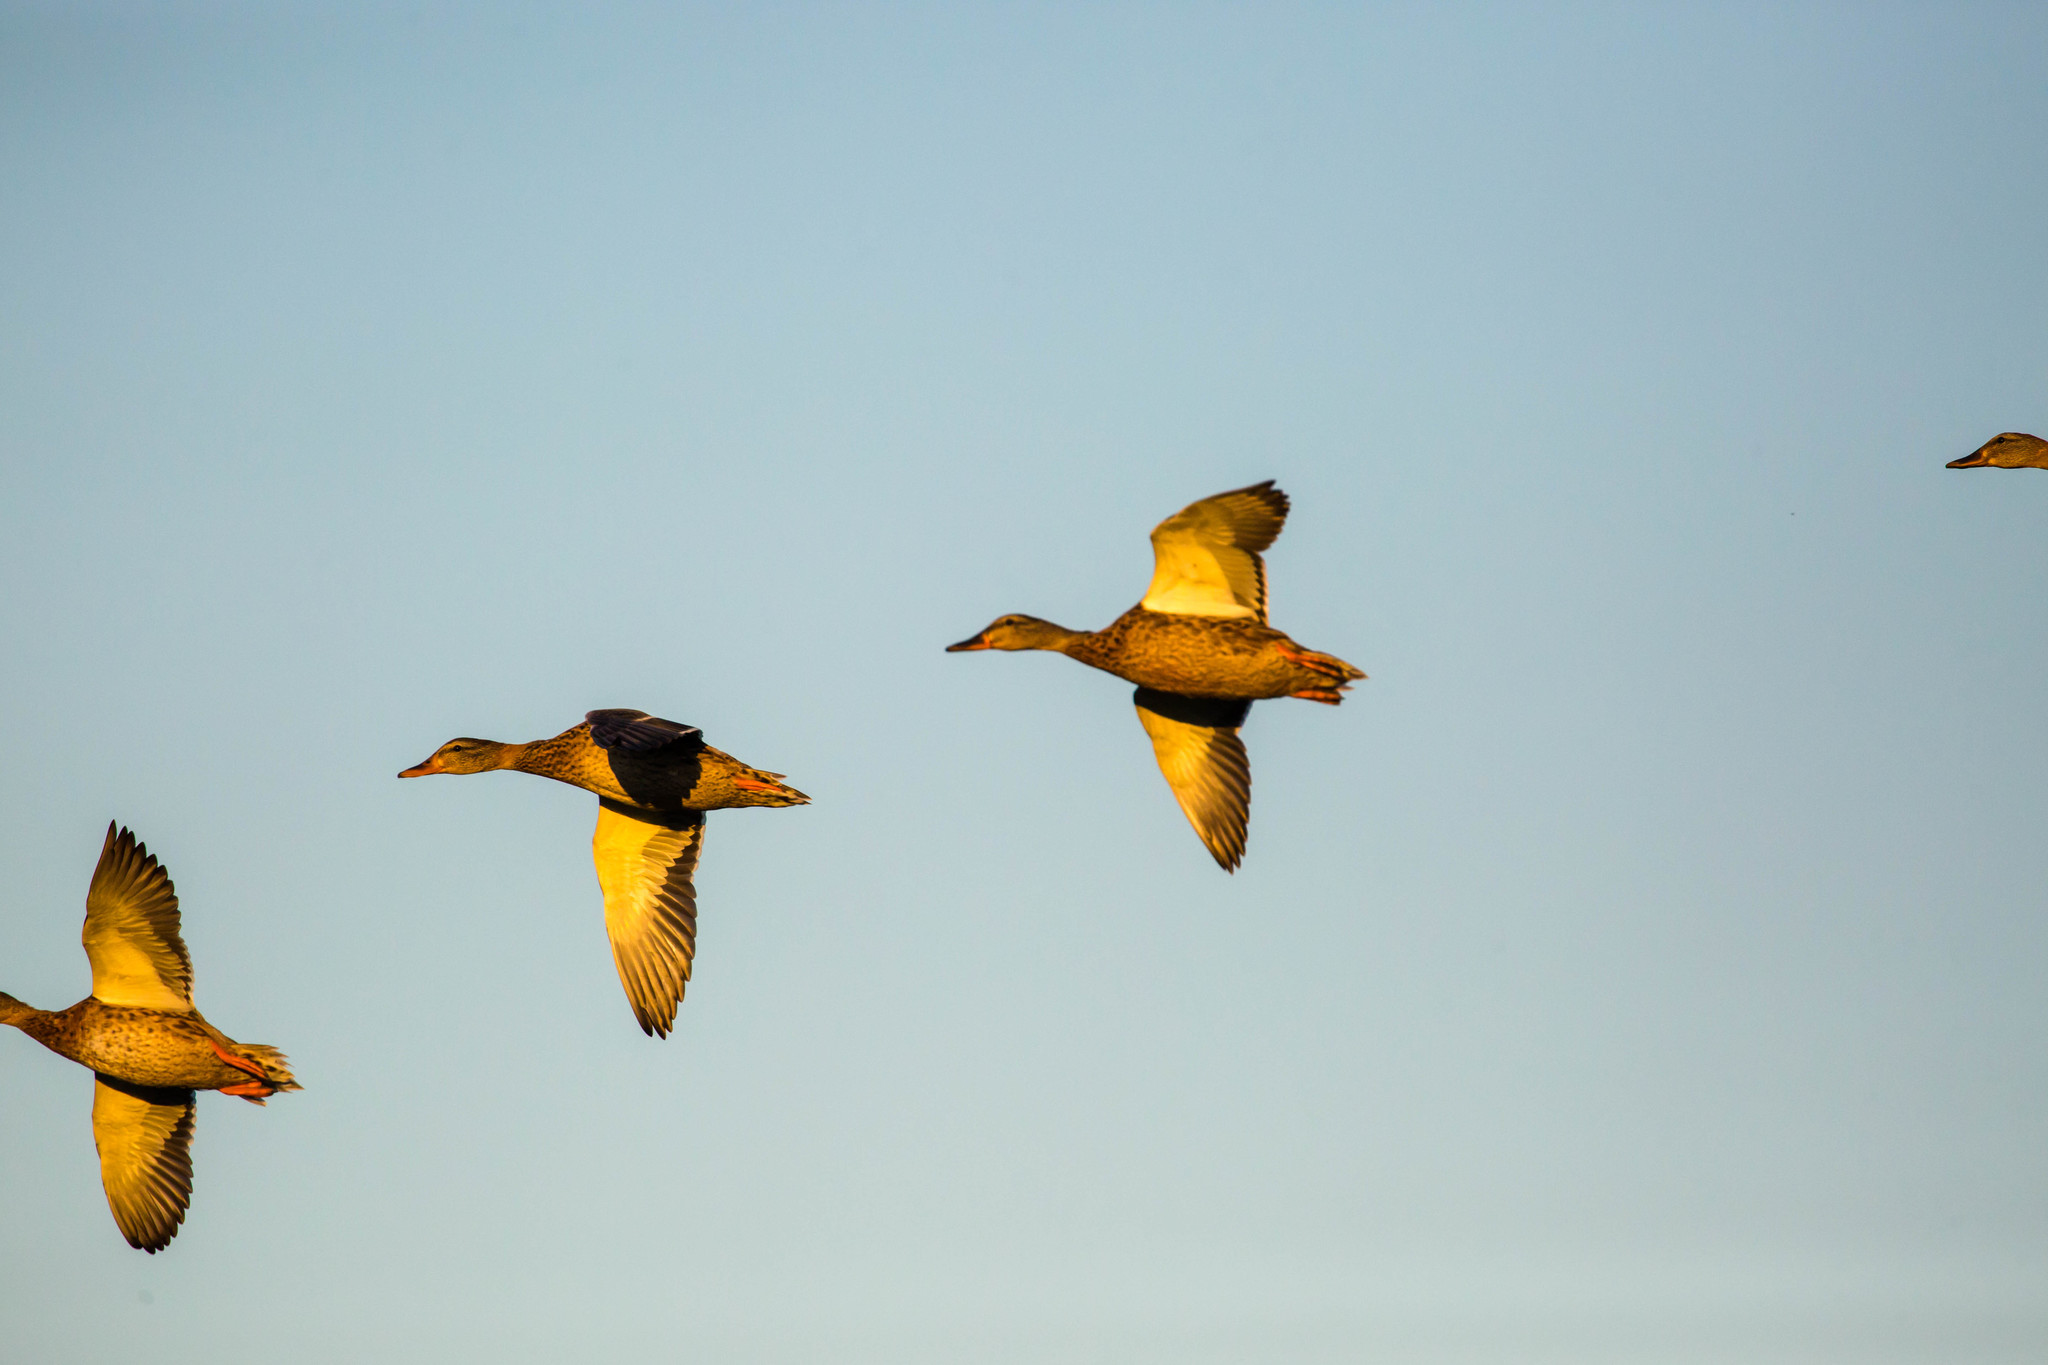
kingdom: Animalia
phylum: Chordata
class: Aves
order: Anseriformes
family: Anatidae
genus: Anas
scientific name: Anas platyrhynchos
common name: Mallard
